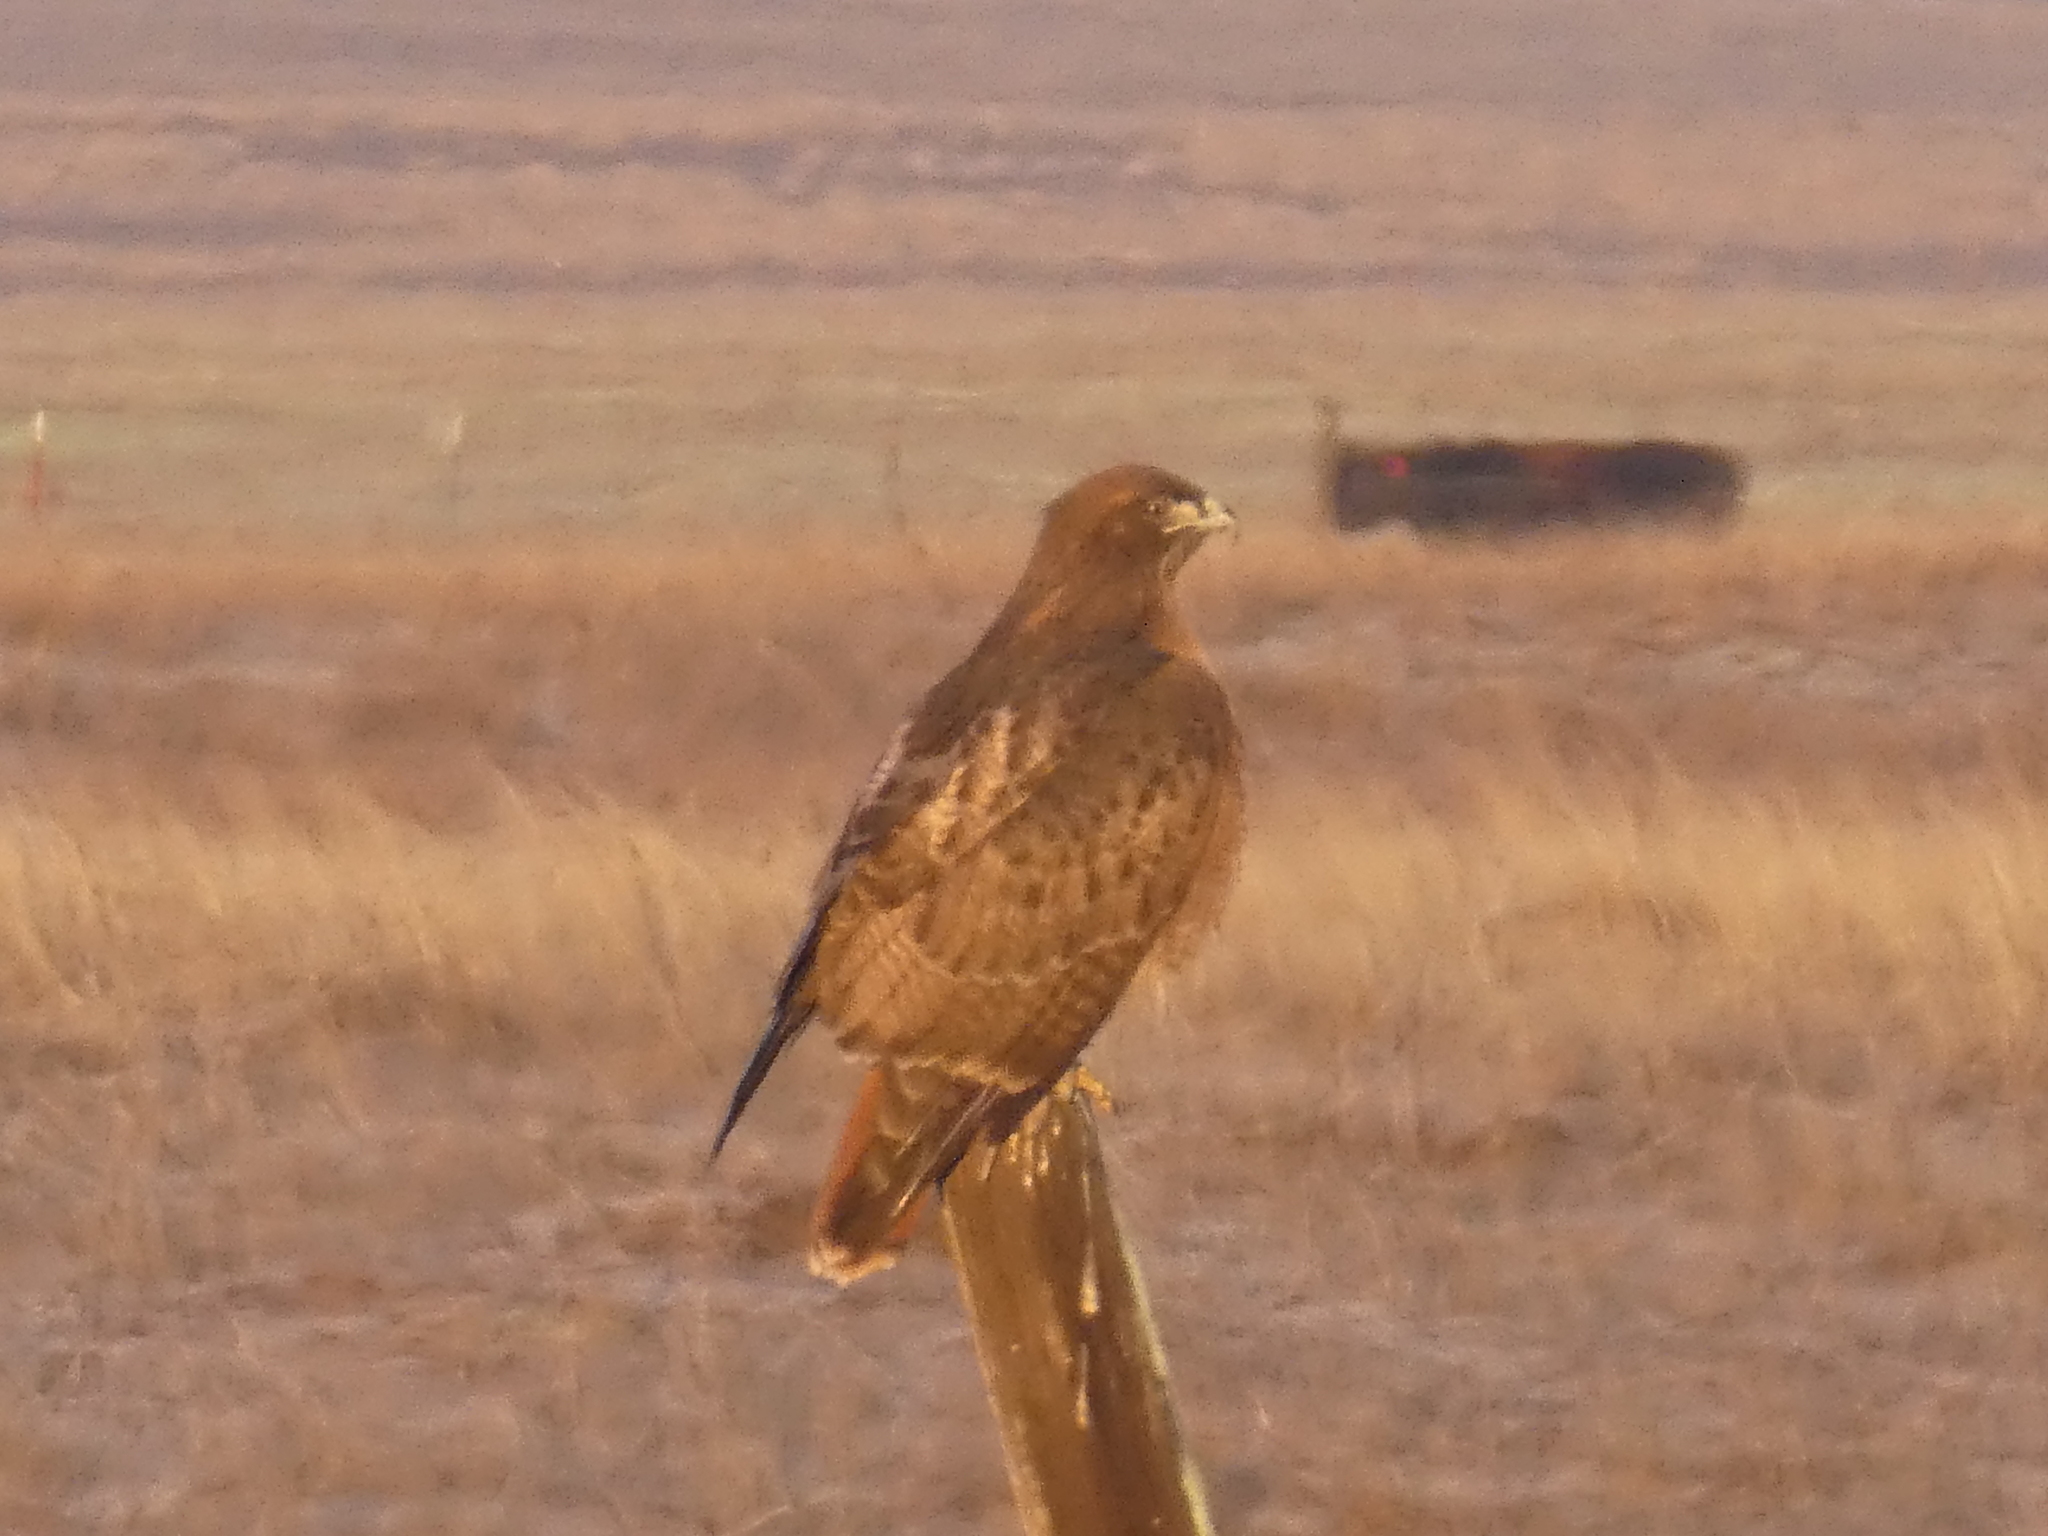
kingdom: Animalia
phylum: Chordata
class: Aves
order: Accipitriformes
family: Accipitridae
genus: Buteo
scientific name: Buteo jamaicensis
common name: Red-tailed hawk
